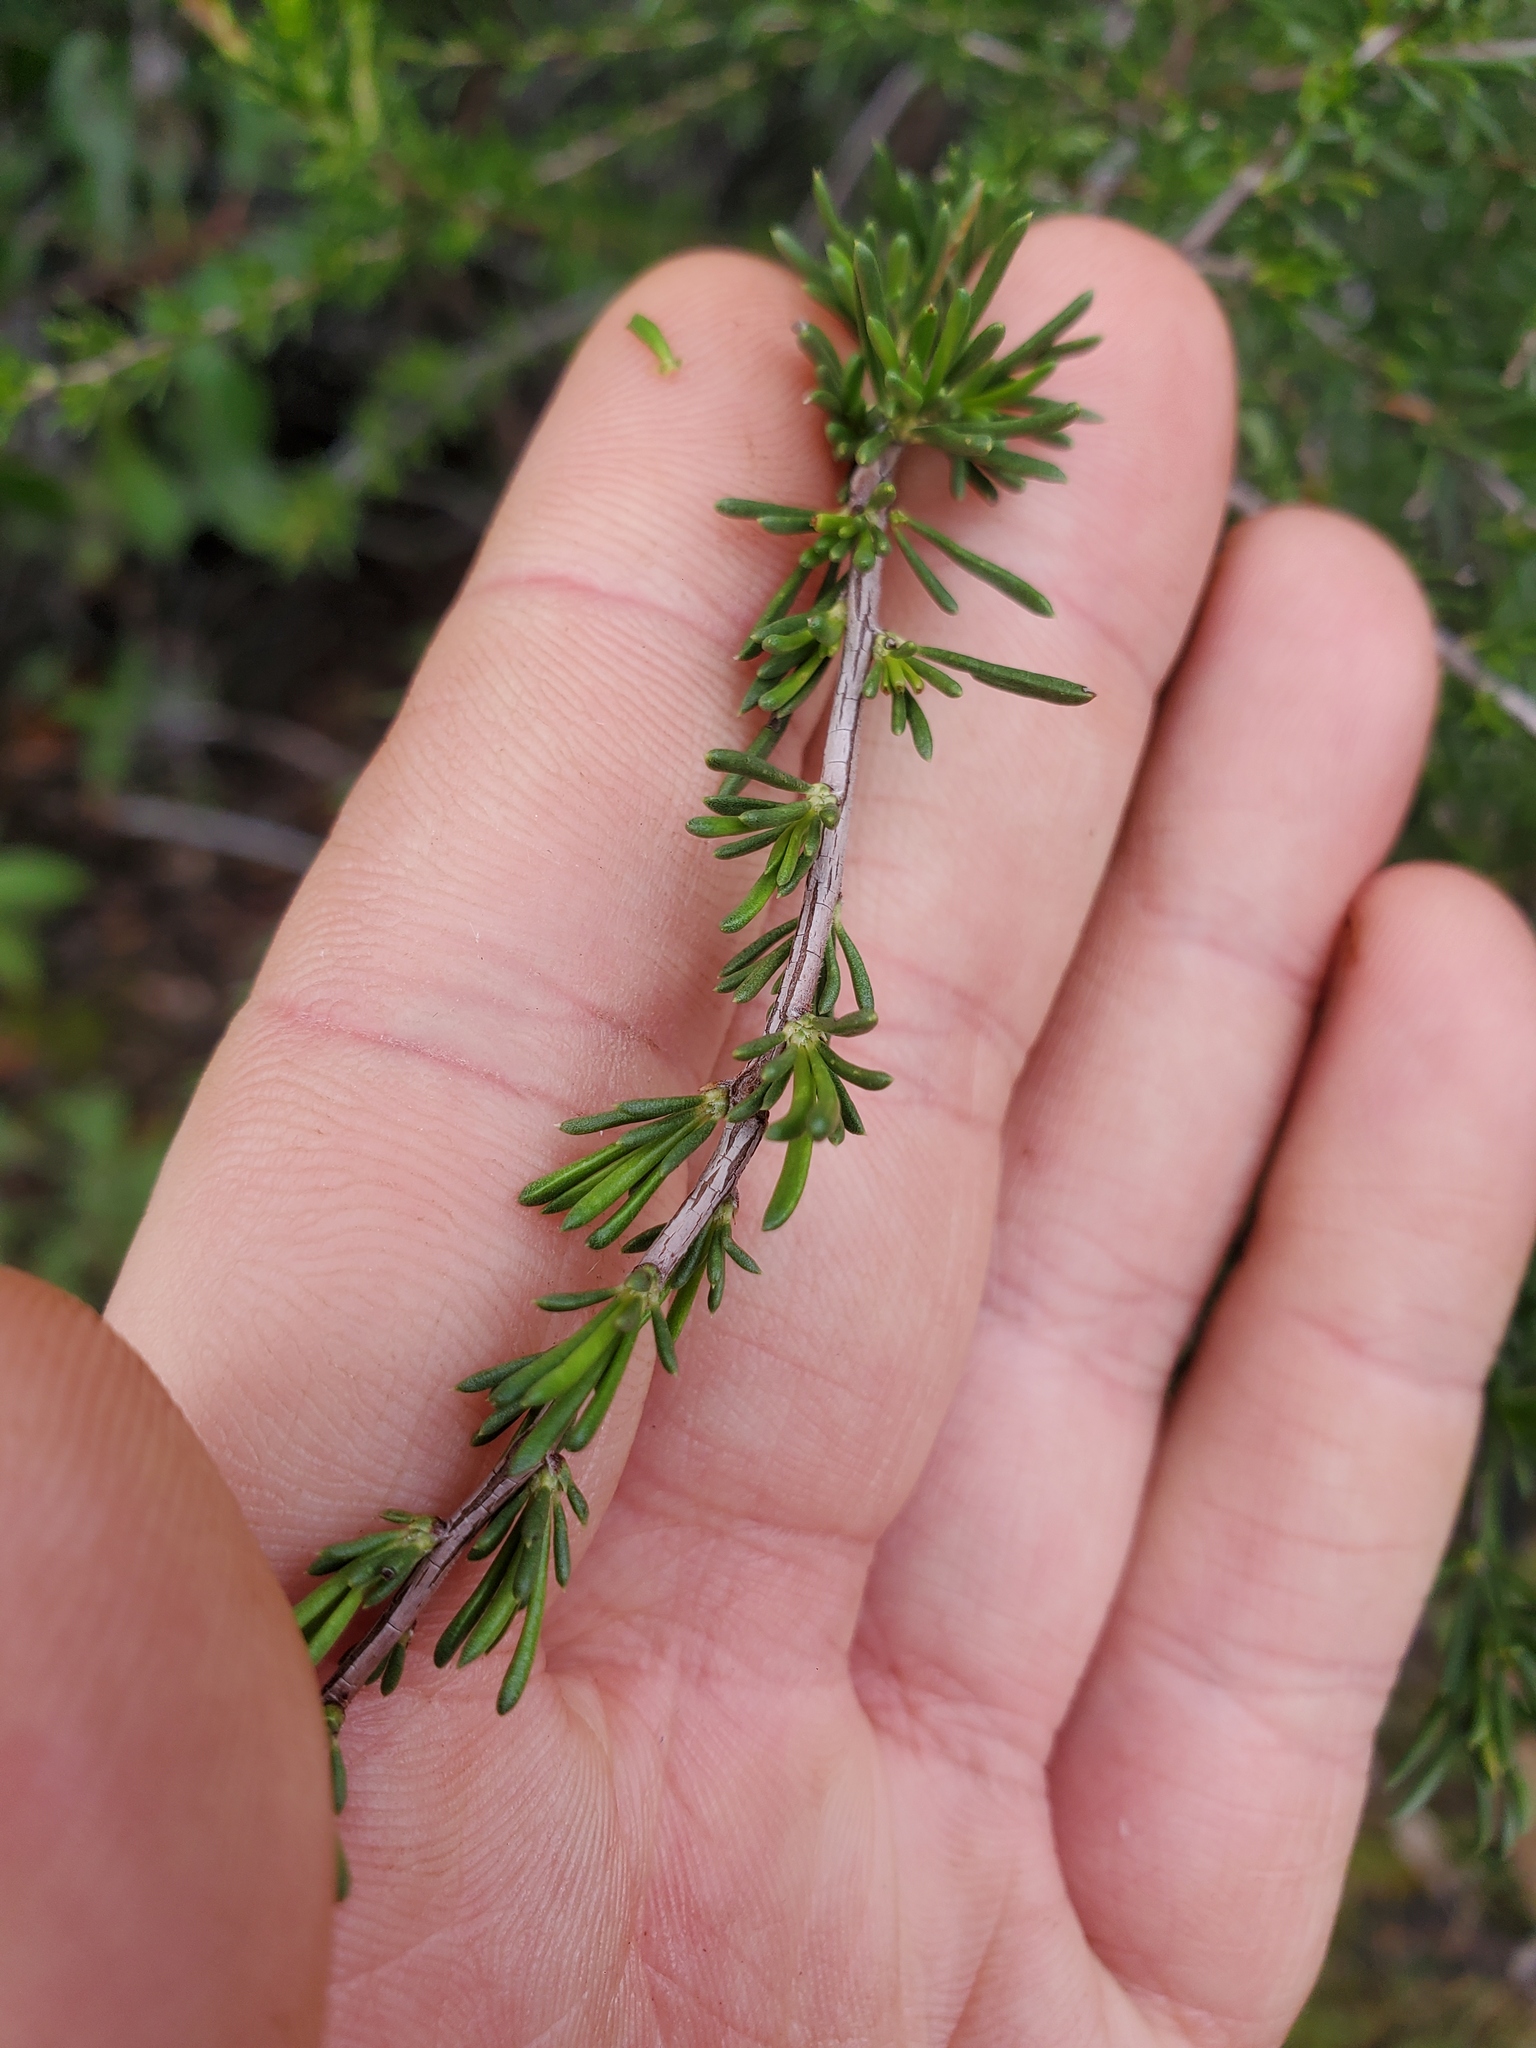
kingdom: Plantae
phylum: Tracheophyta
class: Magnoliopsida
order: Rosales
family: Rosaceae
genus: Adenostoma
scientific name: Adenostoma fasciculatum
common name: Chamise
